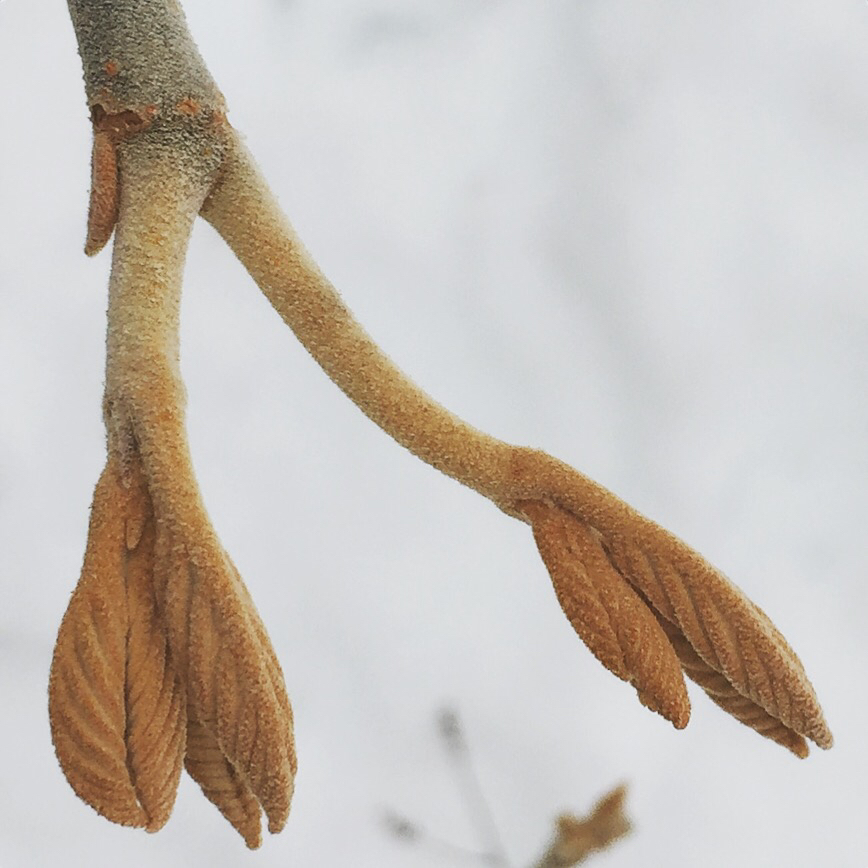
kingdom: Plantae
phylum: Tracheophyta
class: Magnoliopsida
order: Dipsacales
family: Viburnaceae
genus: Viburnum
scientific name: Viburnum lantanoides
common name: Hobblebush
